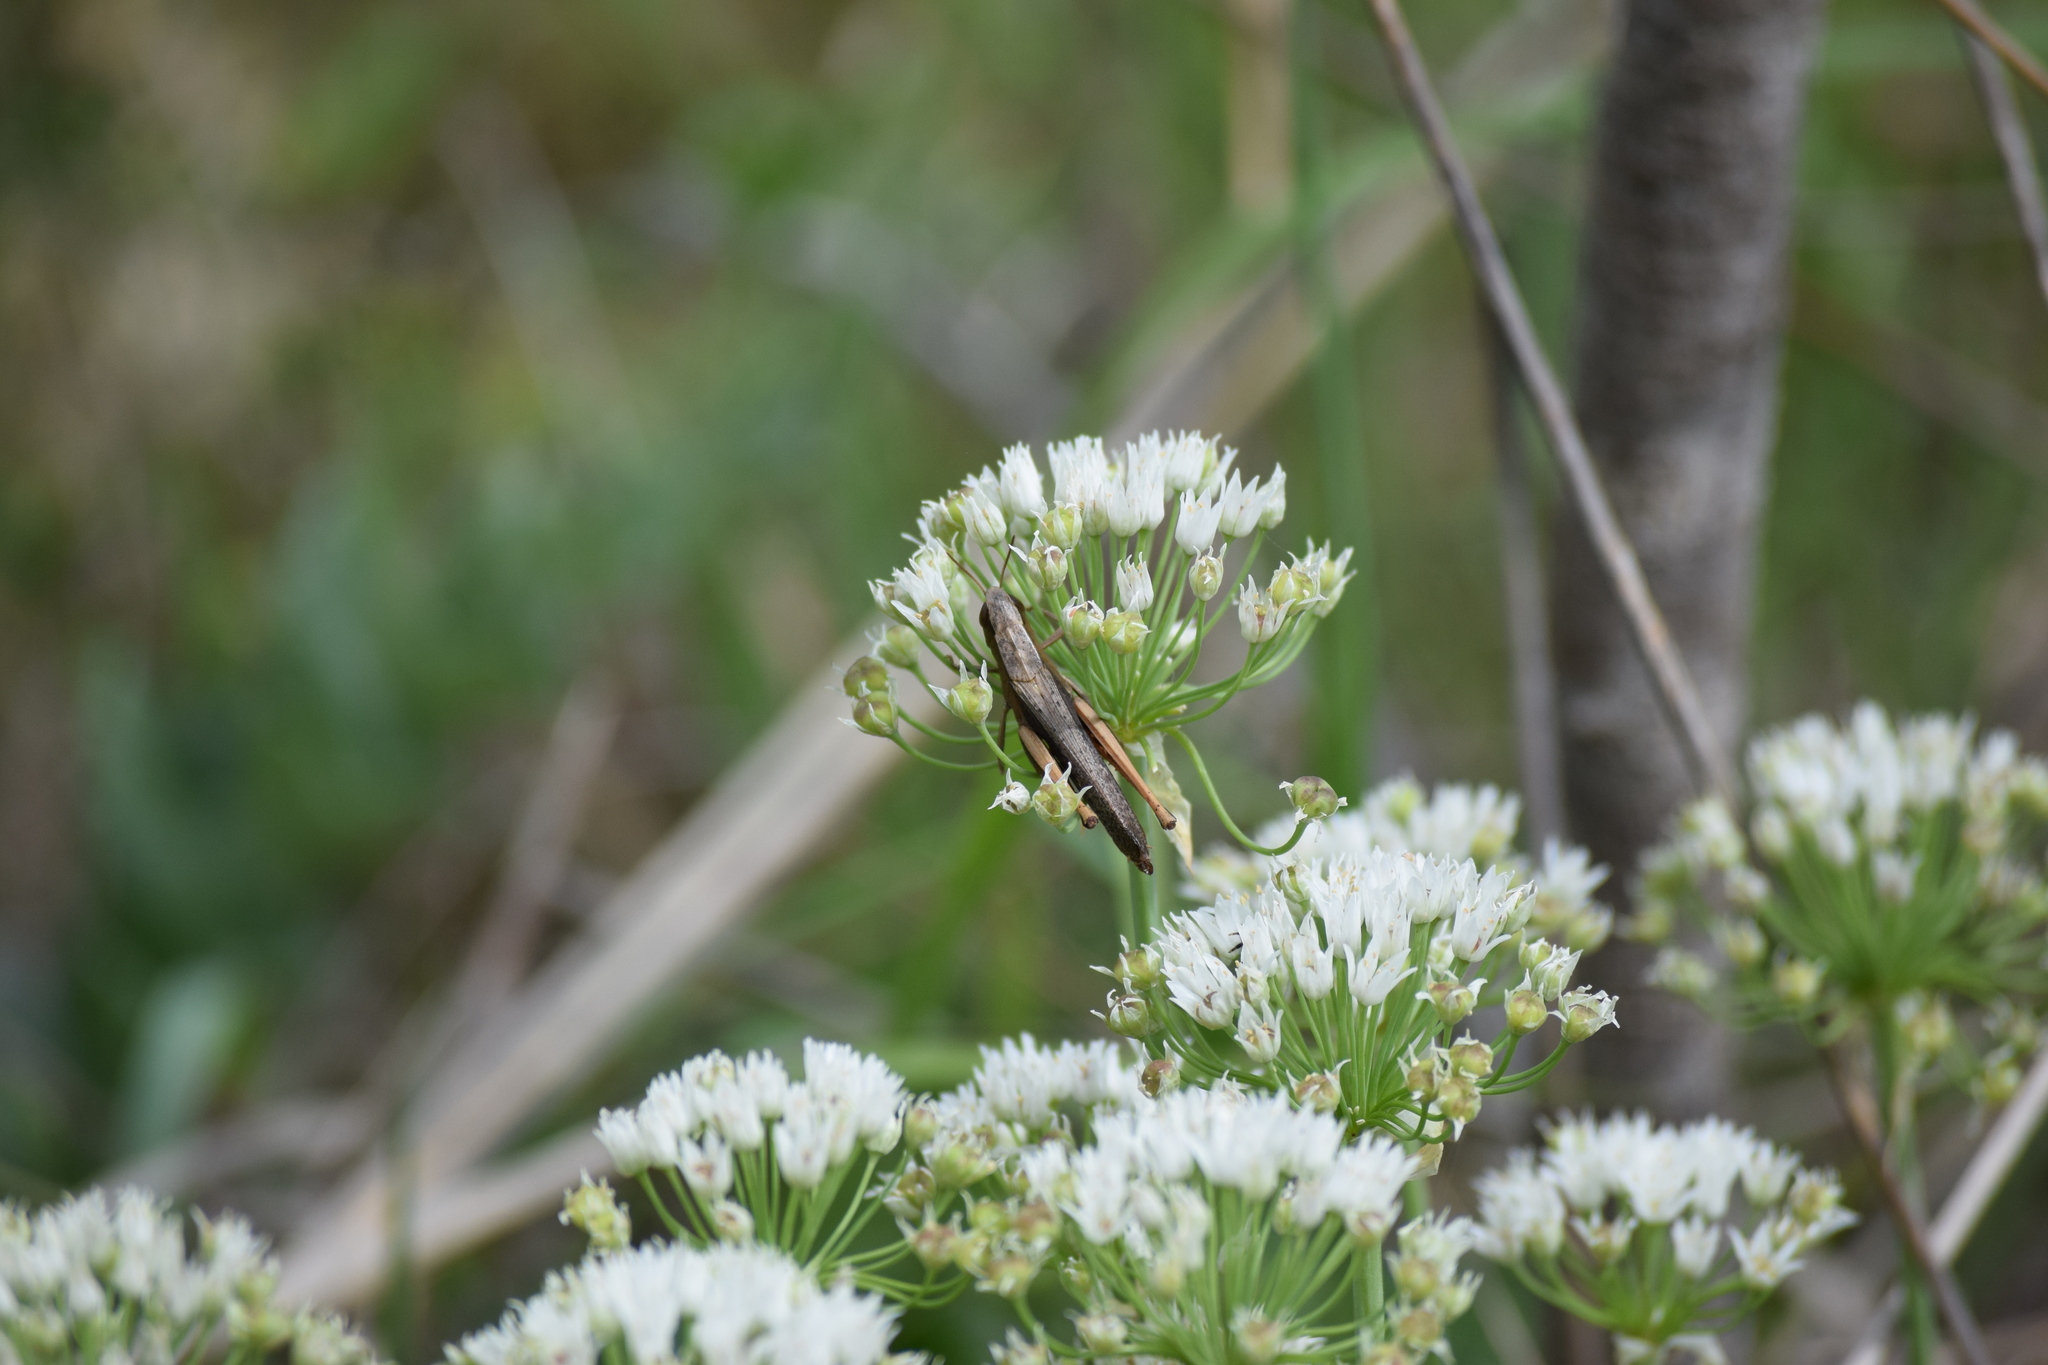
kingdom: Animalia
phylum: Arthropoda
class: Insecta
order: Orthoptera
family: Acrididae
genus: Amblytropidia
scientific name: Amblytropidia mysteca
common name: Brown winter grasshopper
